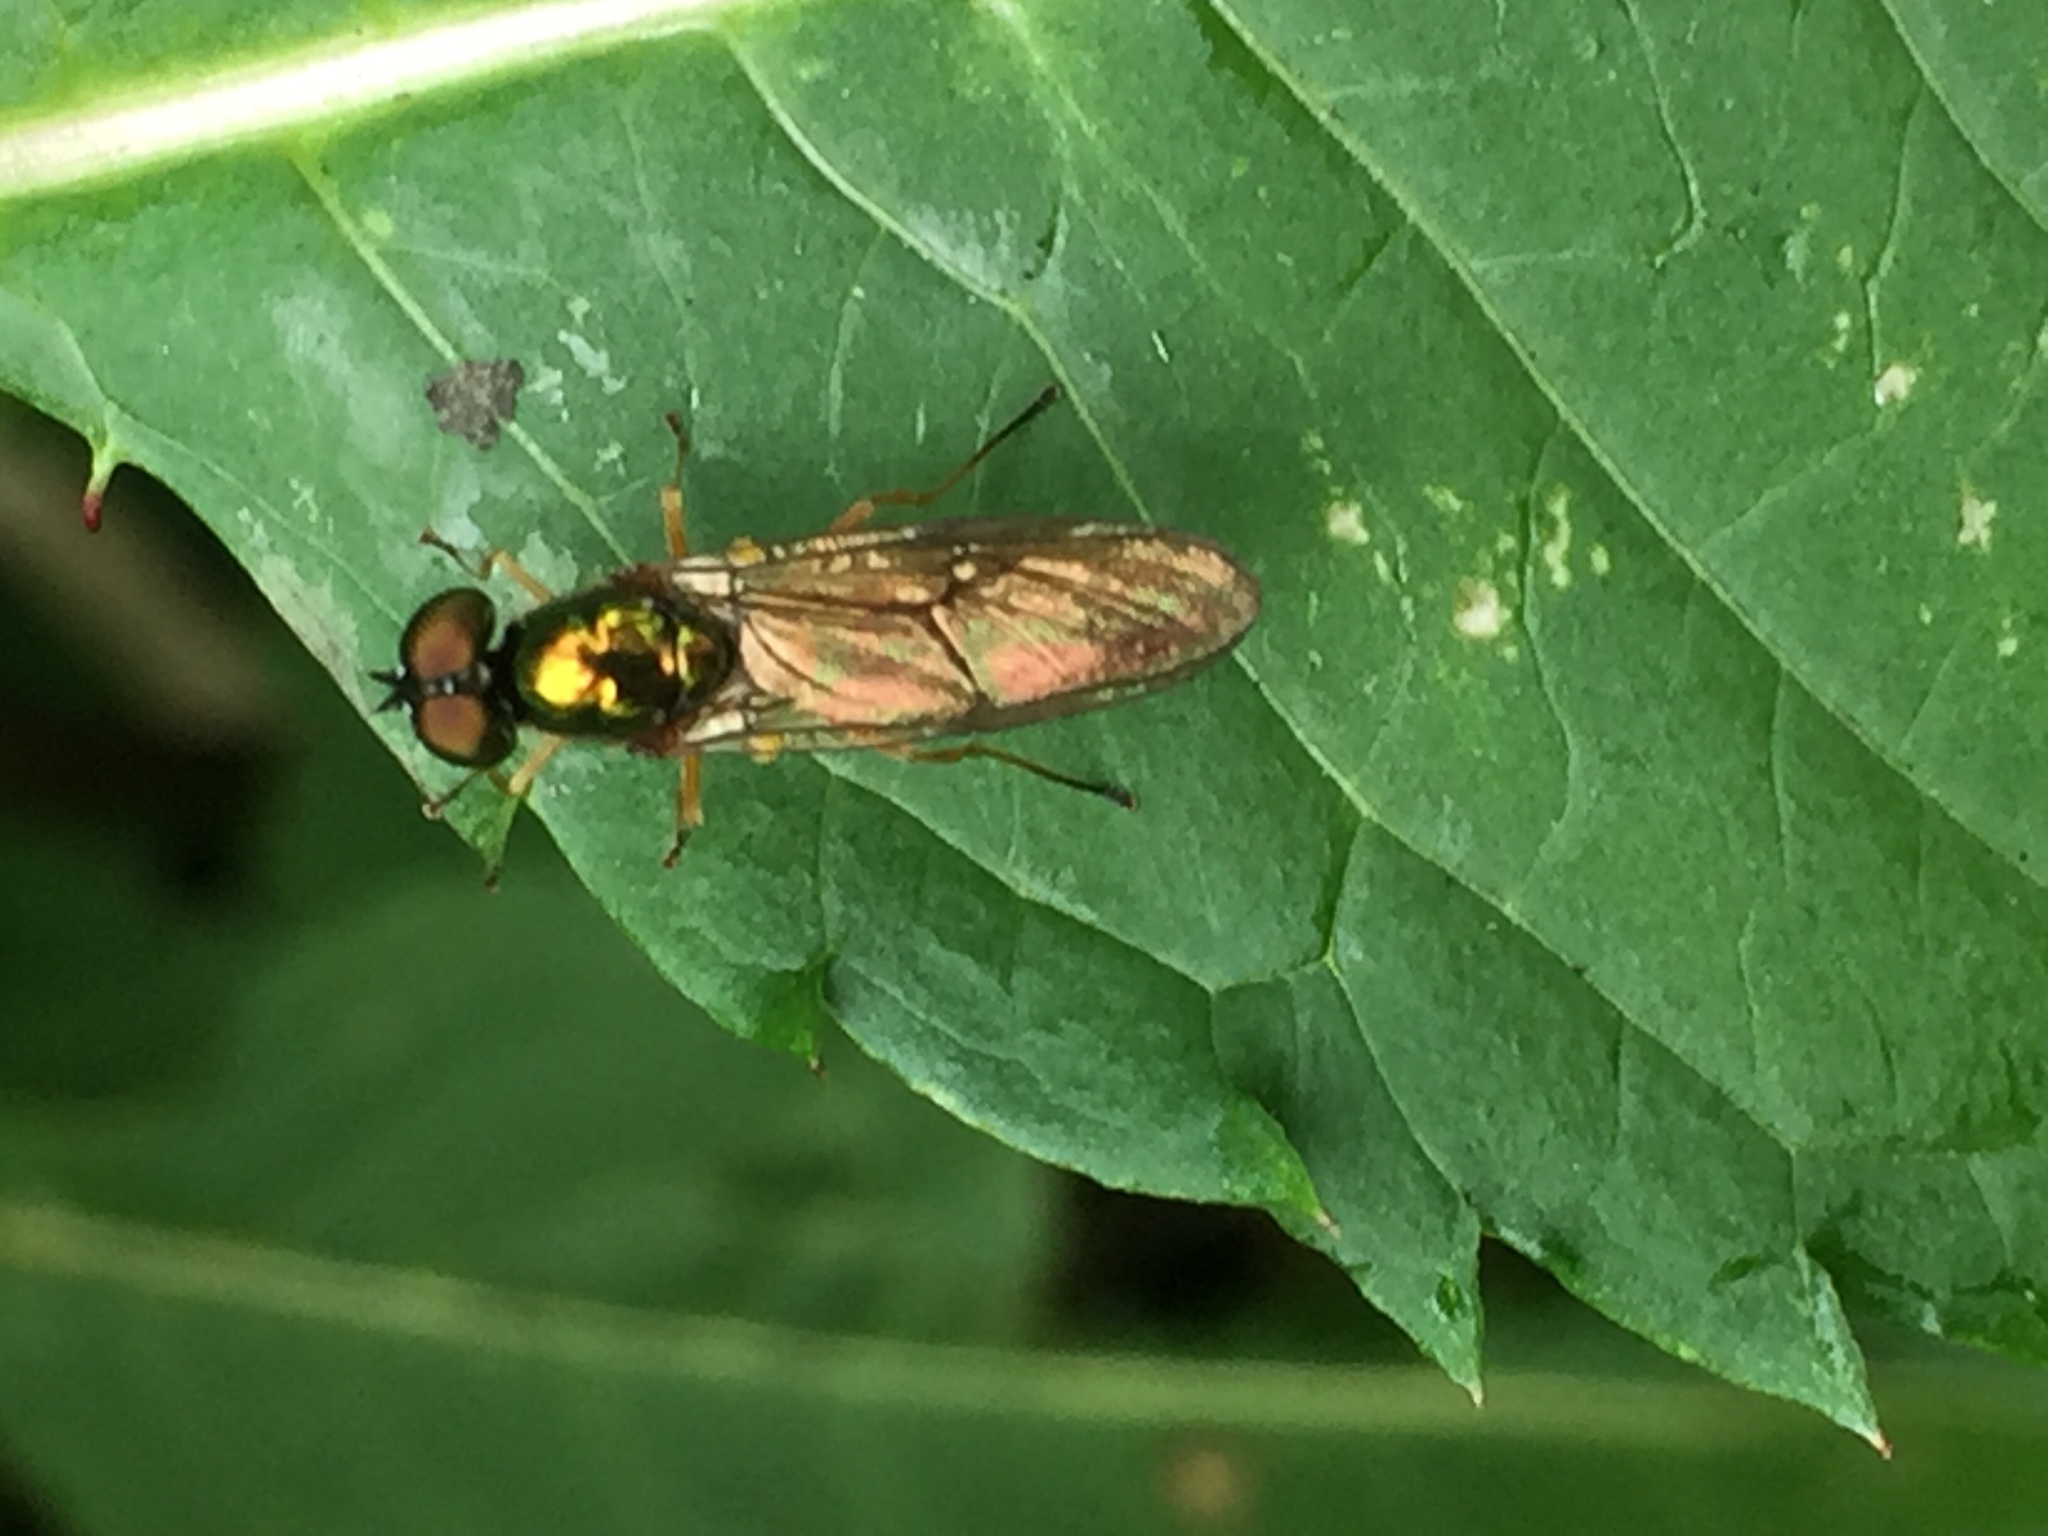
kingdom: Animalia
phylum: Arthropoda
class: Insecta
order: Diptera
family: Stratiomyidae
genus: Sargus
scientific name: Sargus bipunctatus
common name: Twin-spot centurion
